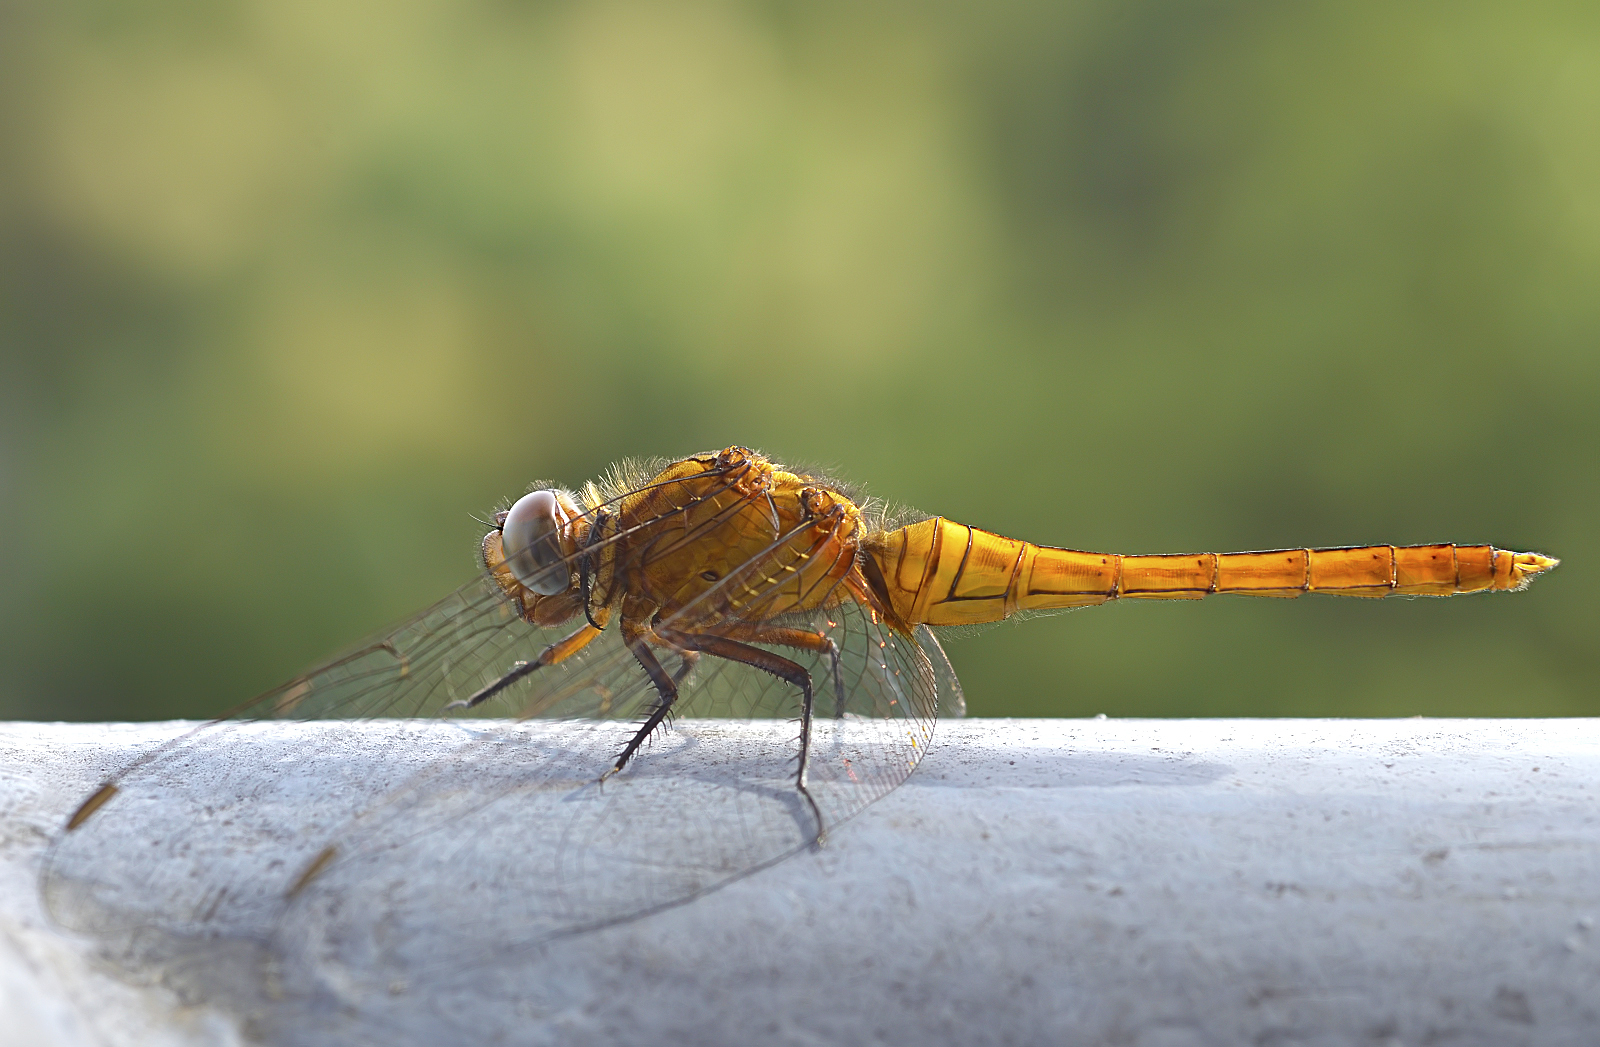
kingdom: Animalia
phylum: Arthropoda
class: Insecta
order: Odonata
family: Libellulidae
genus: Orthetrum
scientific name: Orthetrum pruinosum
